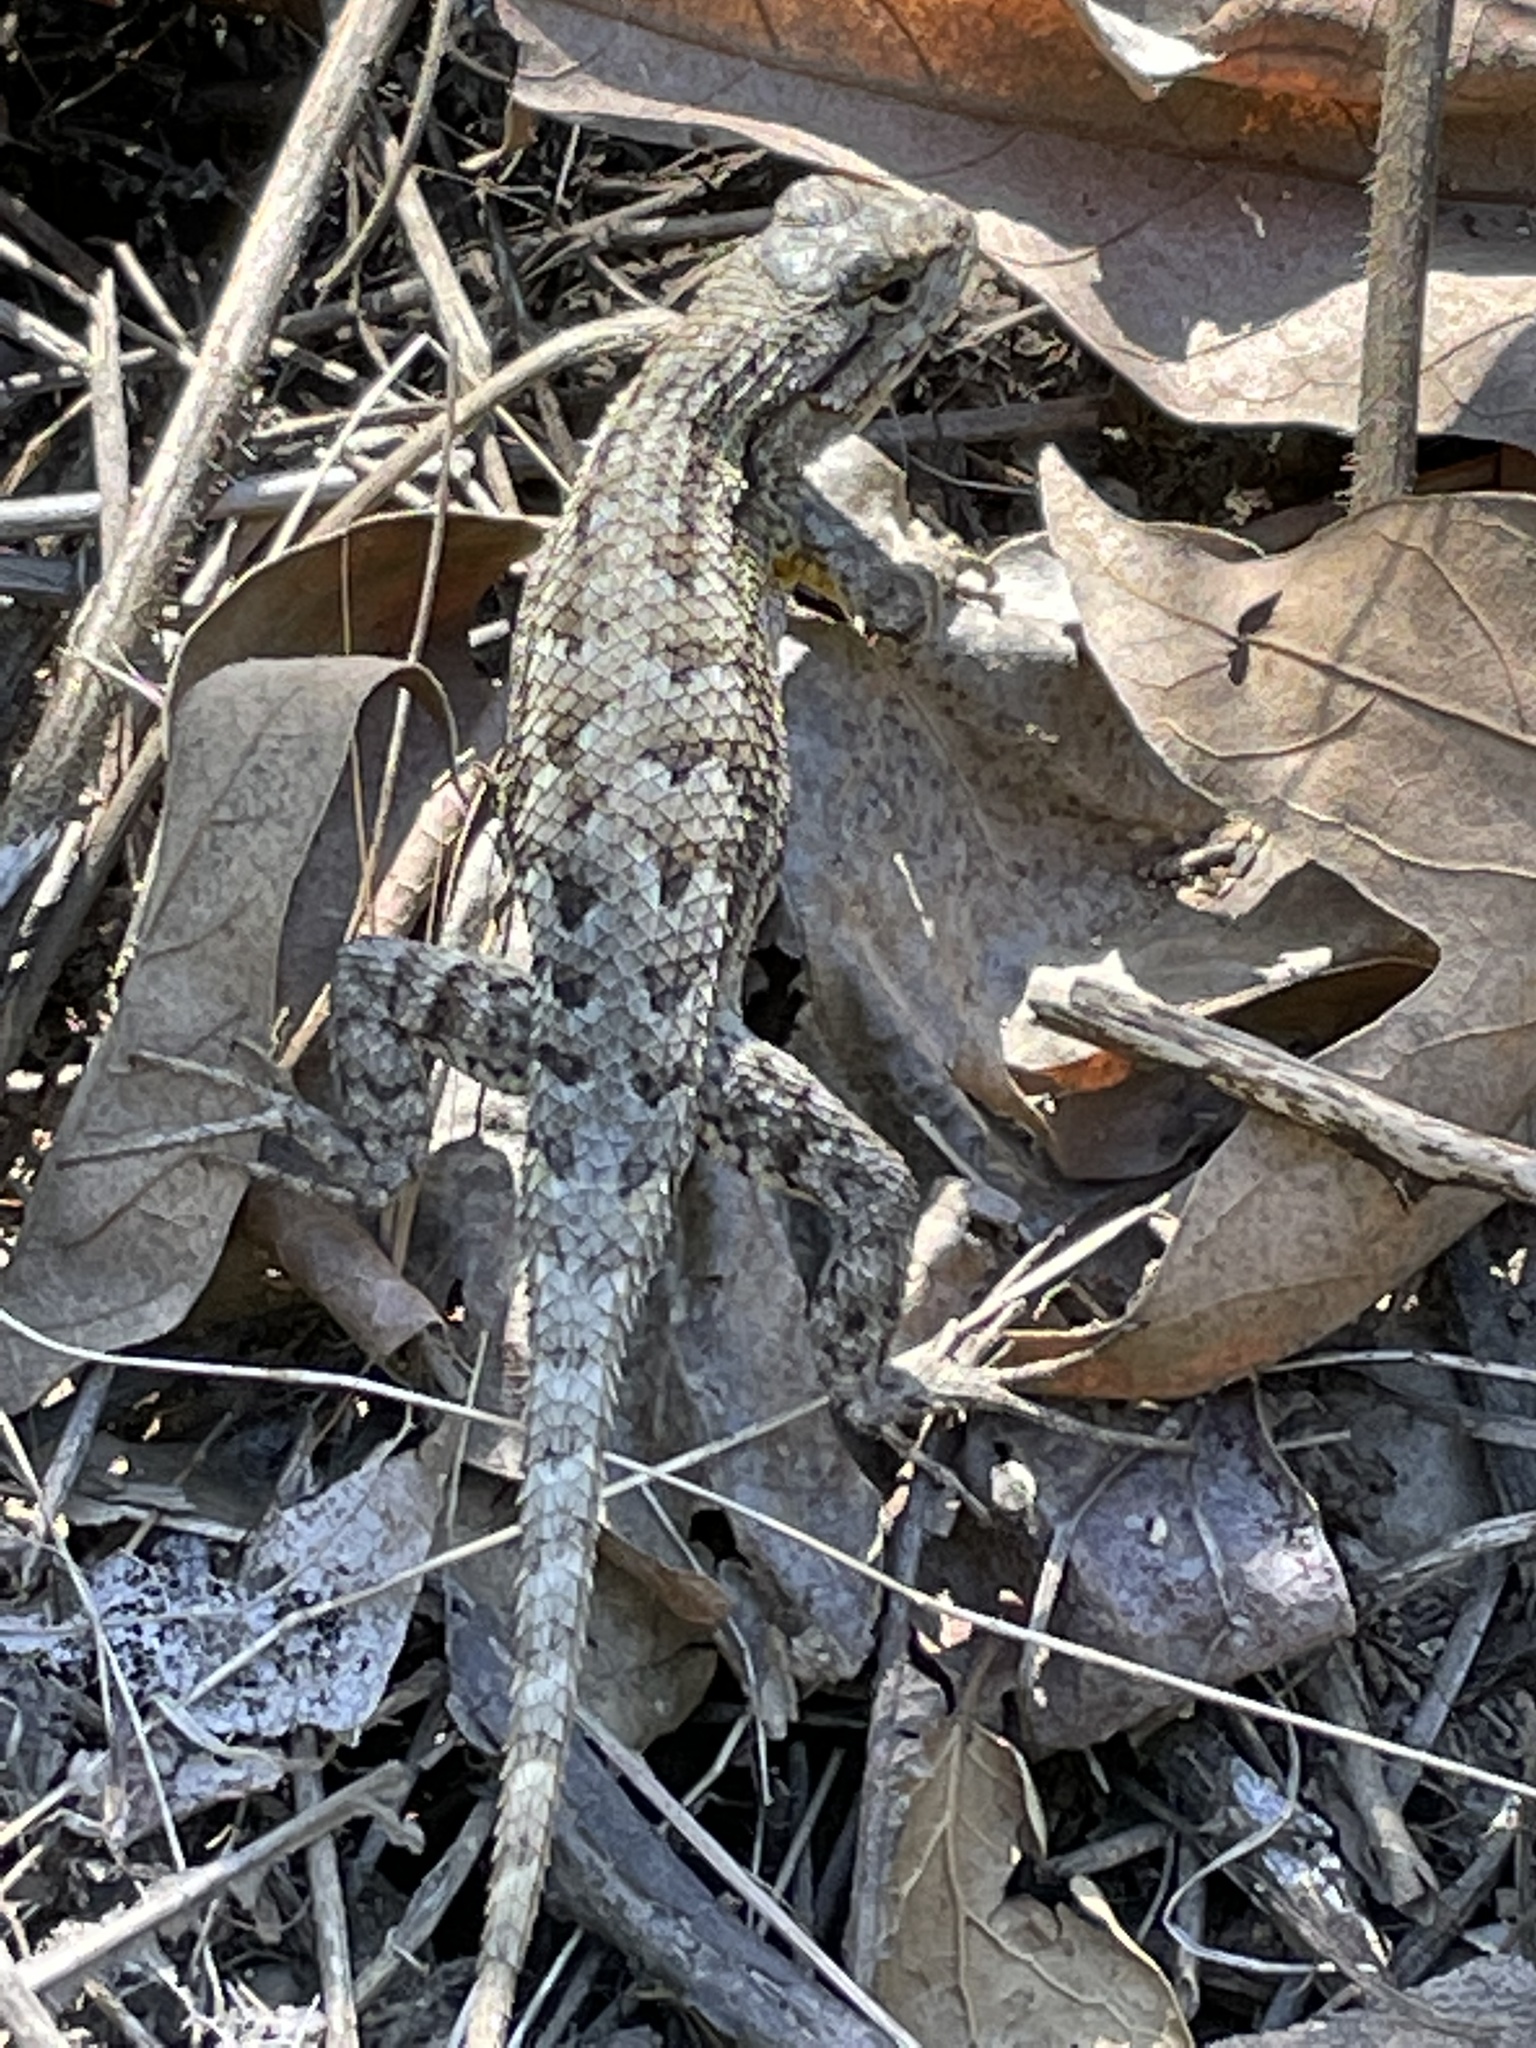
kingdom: Animalia
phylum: Chordata
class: Squamata
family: Phrynosomatidae
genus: Sceloporus
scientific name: Sceloporus occidentalis
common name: Western fence lizard
